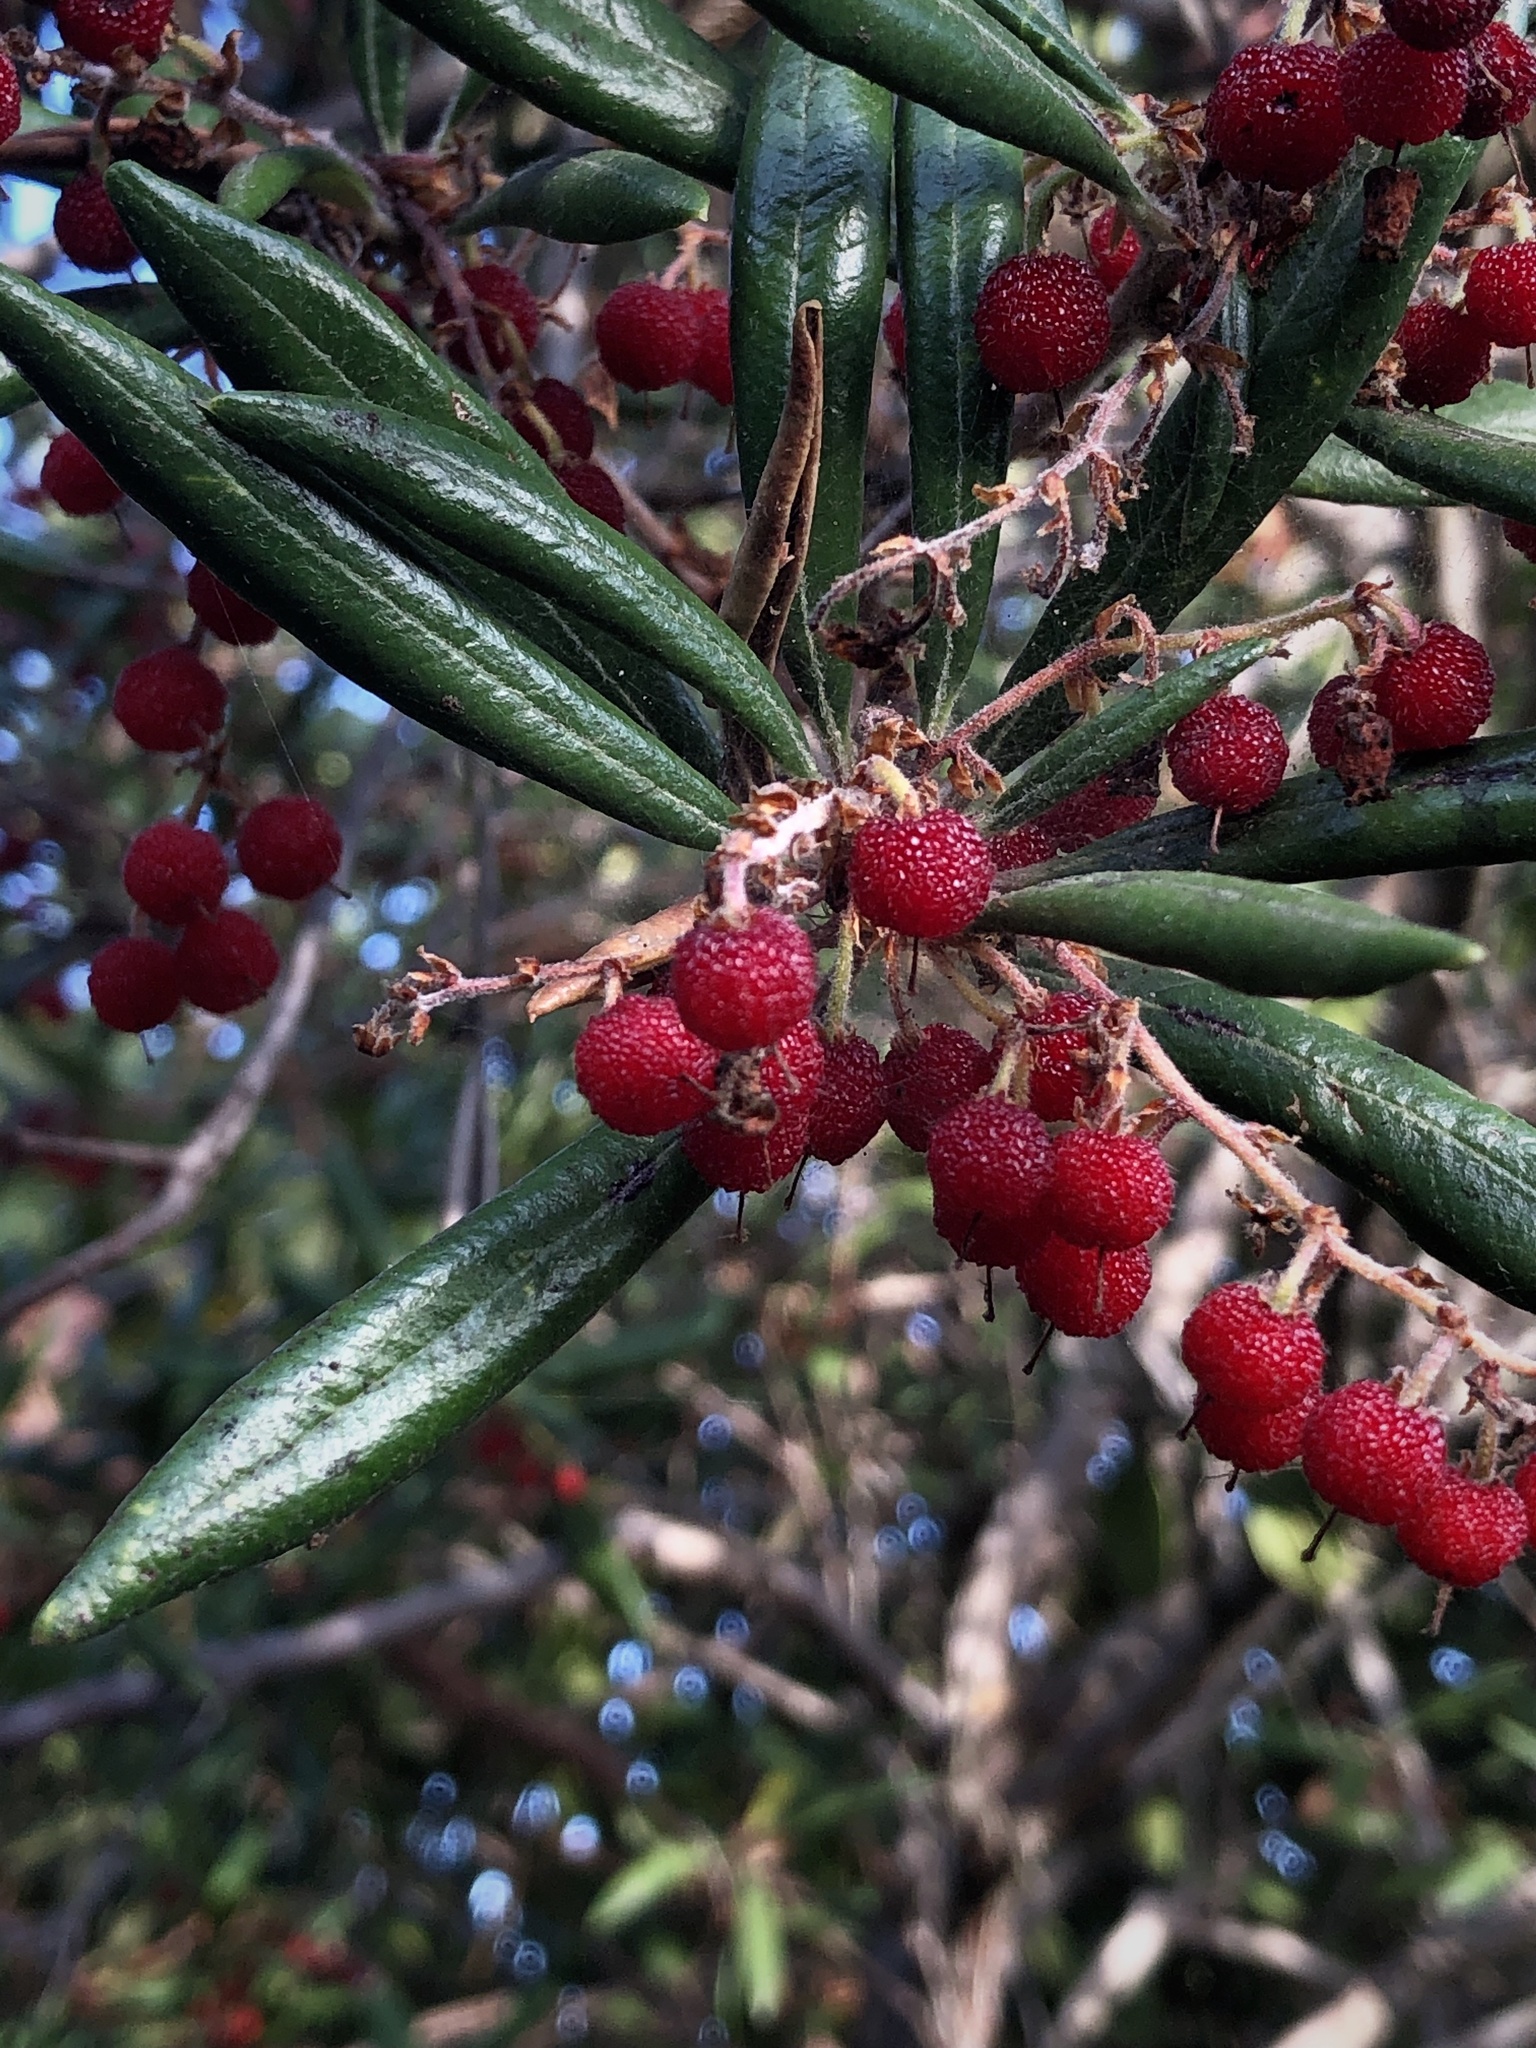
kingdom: Plantae
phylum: Tracheophyta
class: Magnoliopsida
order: Ericales
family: Ericaceae
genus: Comarostaphylis
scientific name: Comarostaphylis diversifolia
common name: Summer-holly
